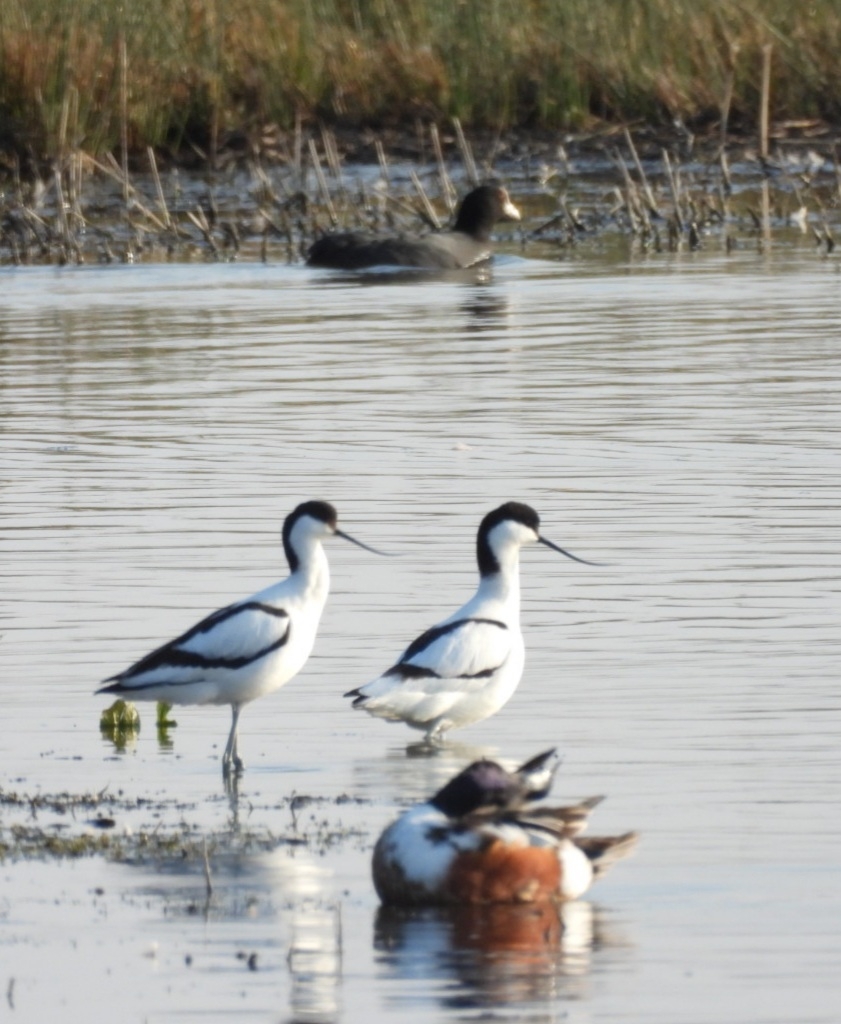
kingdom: Animalia
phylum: Chordata
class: Aves
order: Charadriiformes
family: Recurvirostridae
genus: Recurvirostra
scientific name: Recurvirostra avosetta
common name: Pied avocet
